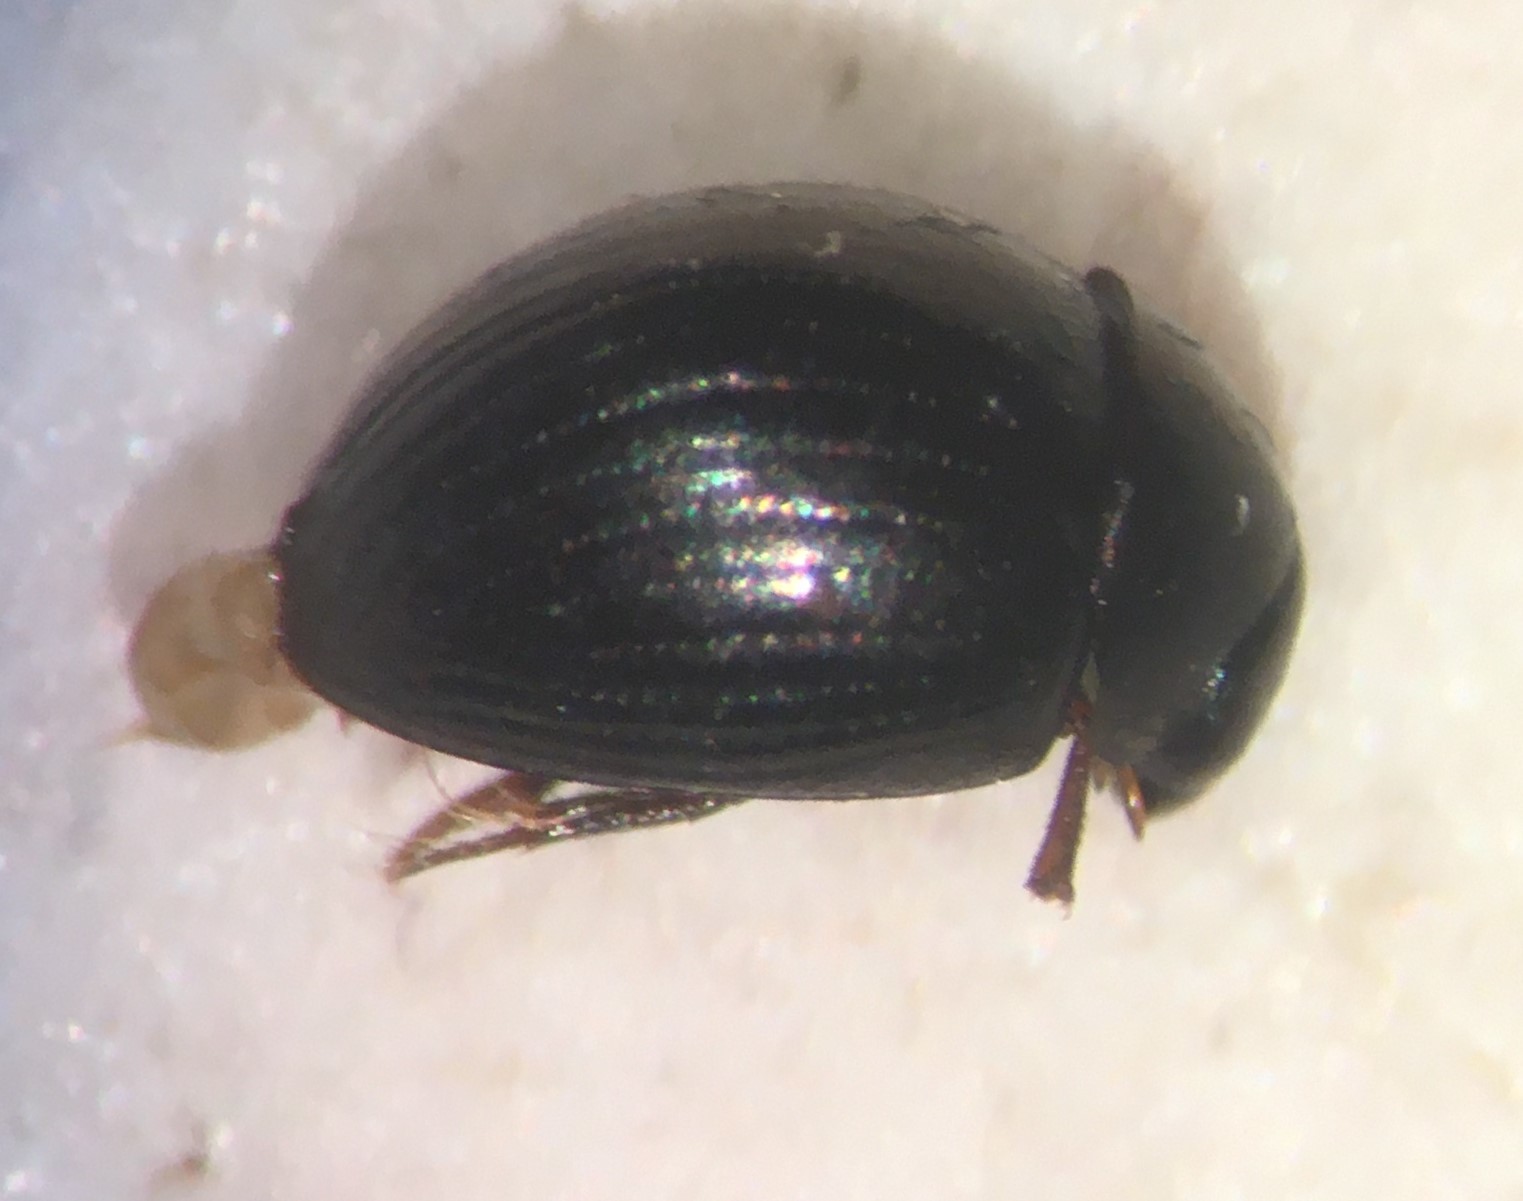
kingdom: Animalia
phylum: Arthropoda
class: Insecta
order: Coleoptera
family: Hydrophilidae
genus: Derallus
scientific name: Derallus altus
